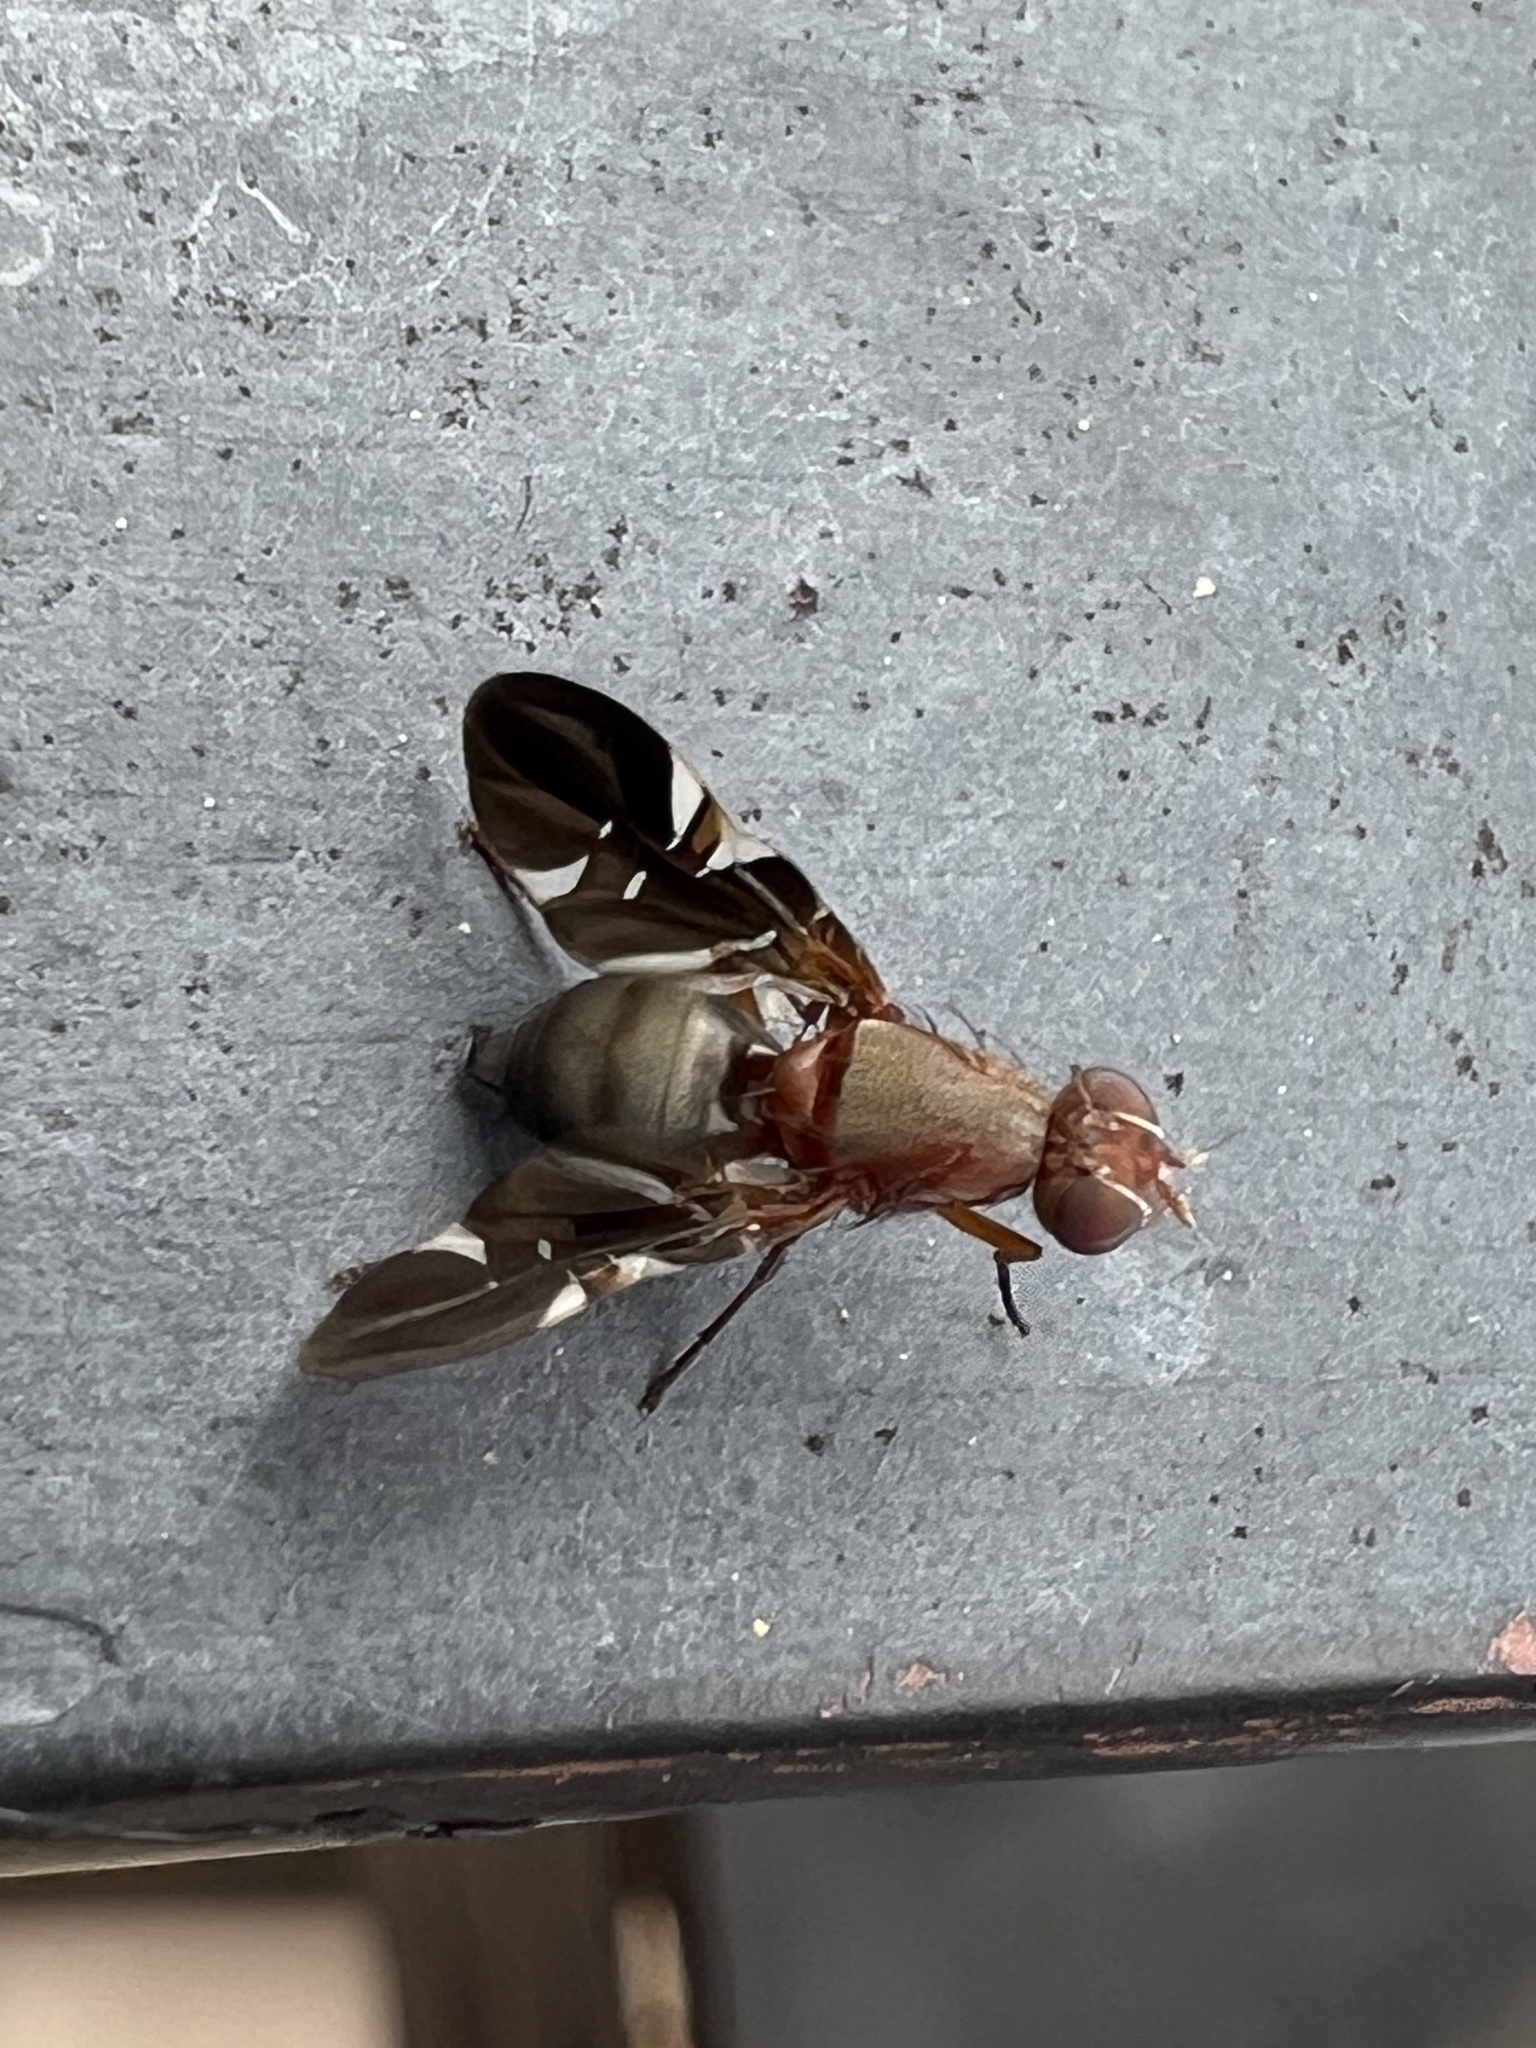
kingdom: Animalia
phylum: Arthropoda
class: Insecta
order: Diptera
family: Ulidiidae
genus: Delphinia
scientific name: Delphinia picta
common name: Common picture-winged fly
